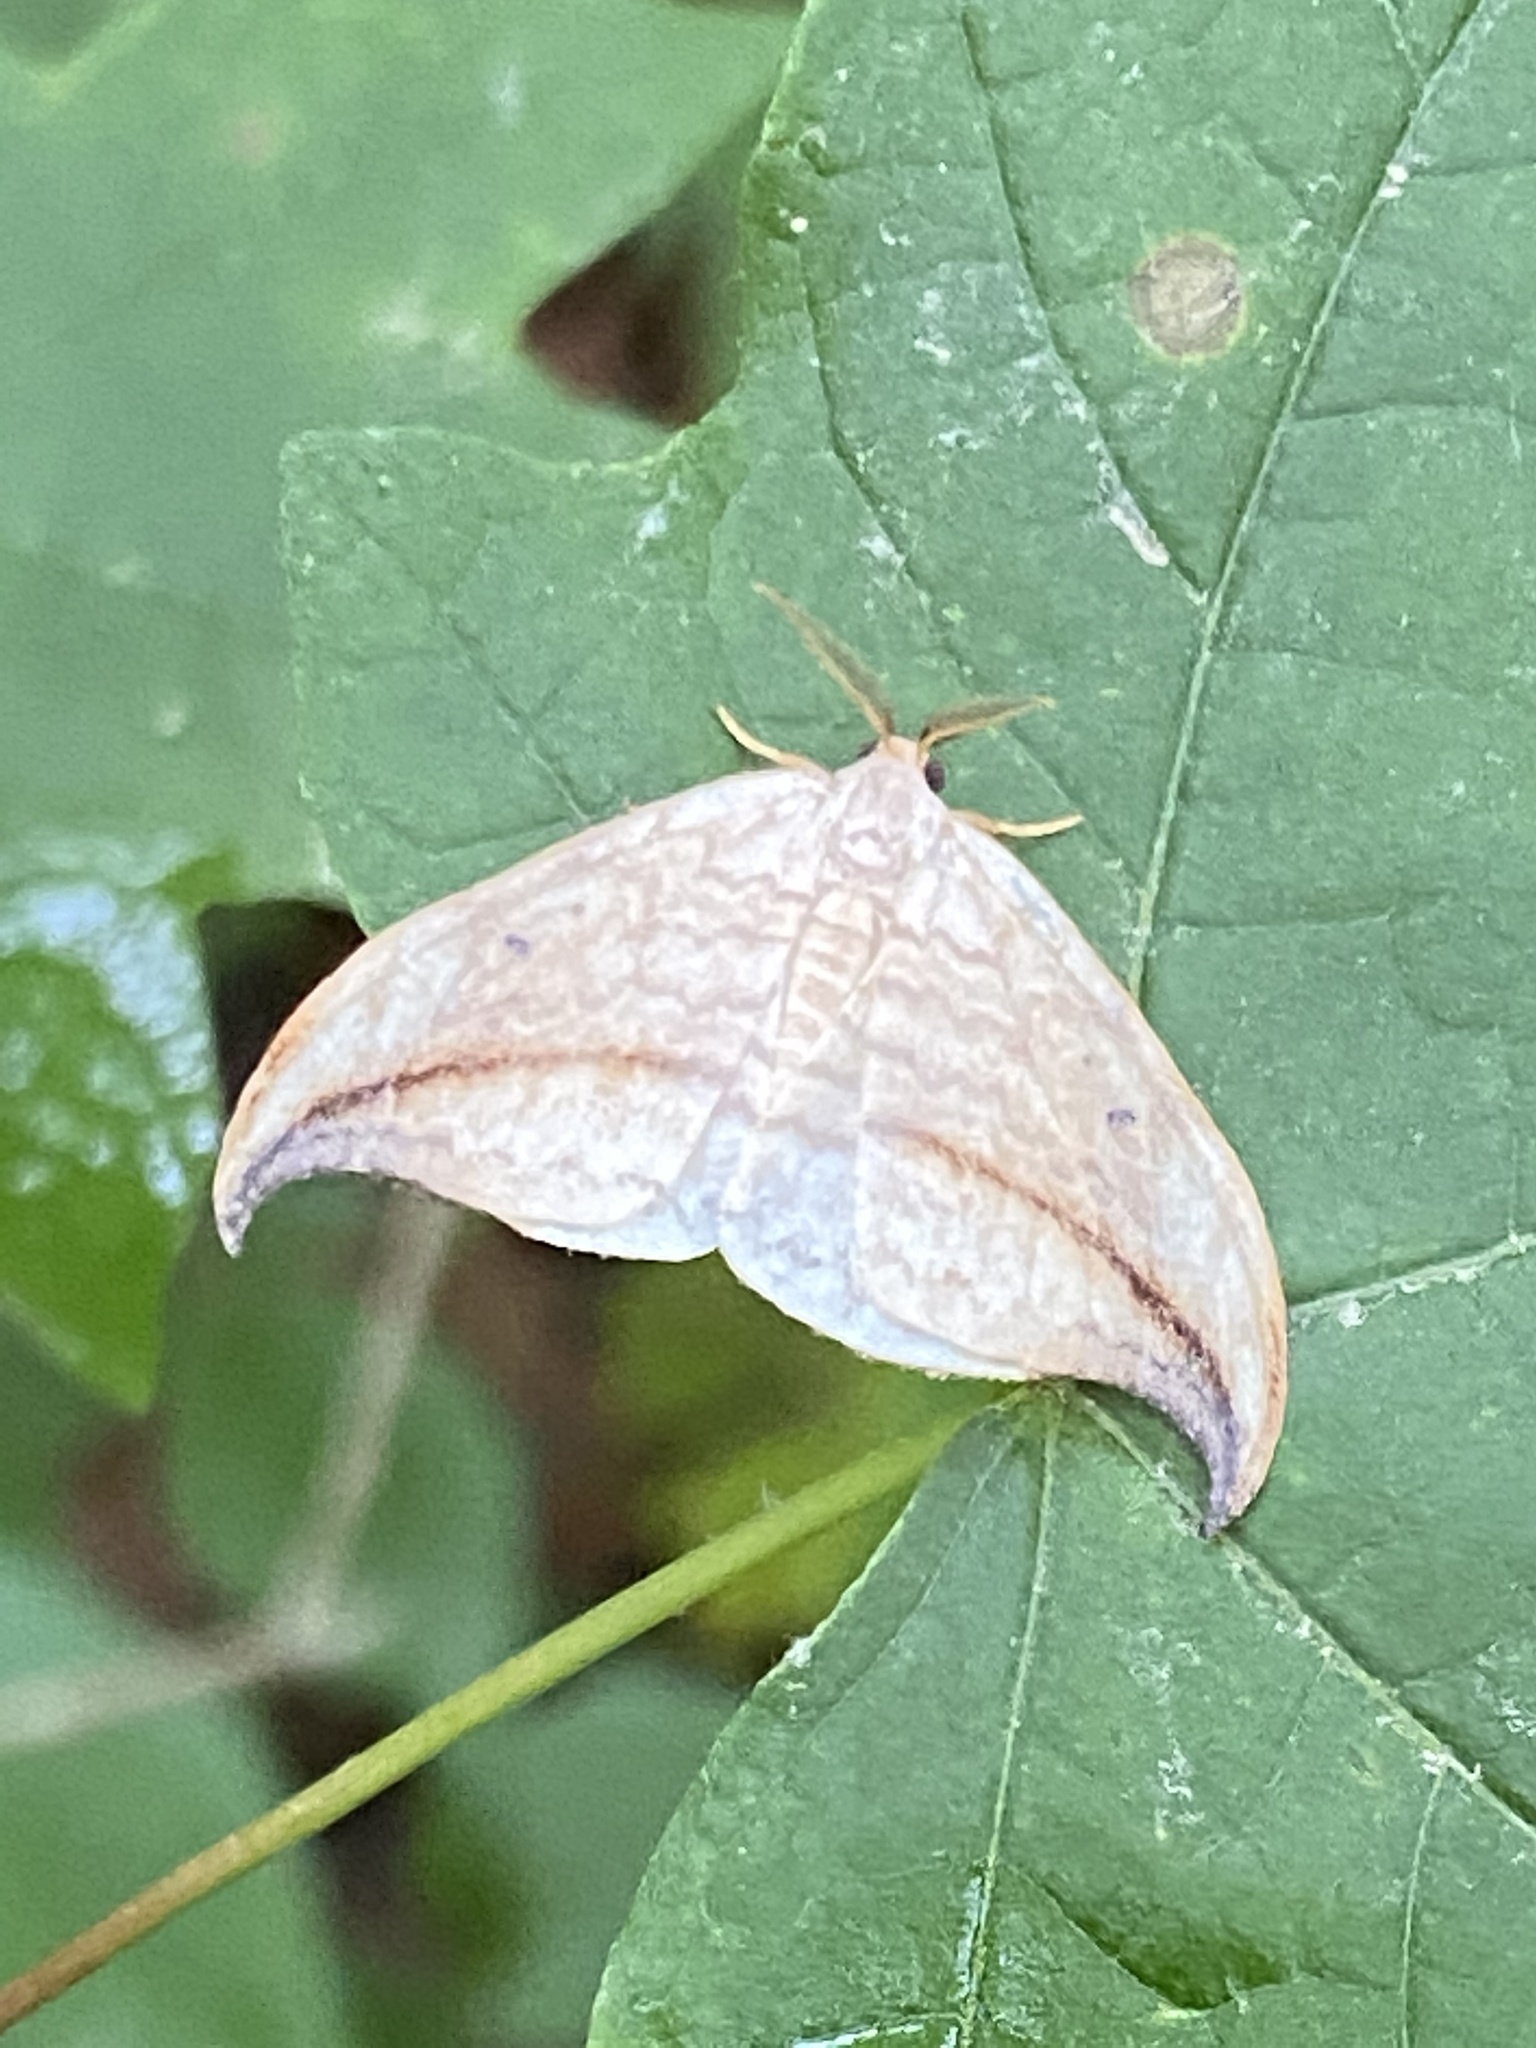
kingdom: Animalia
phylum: Arthropoda
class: Insecta
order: Lepidoptera
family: Drepanidae
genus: Drepana
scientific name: Drepana arcuata
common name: Arched hooktip moth
